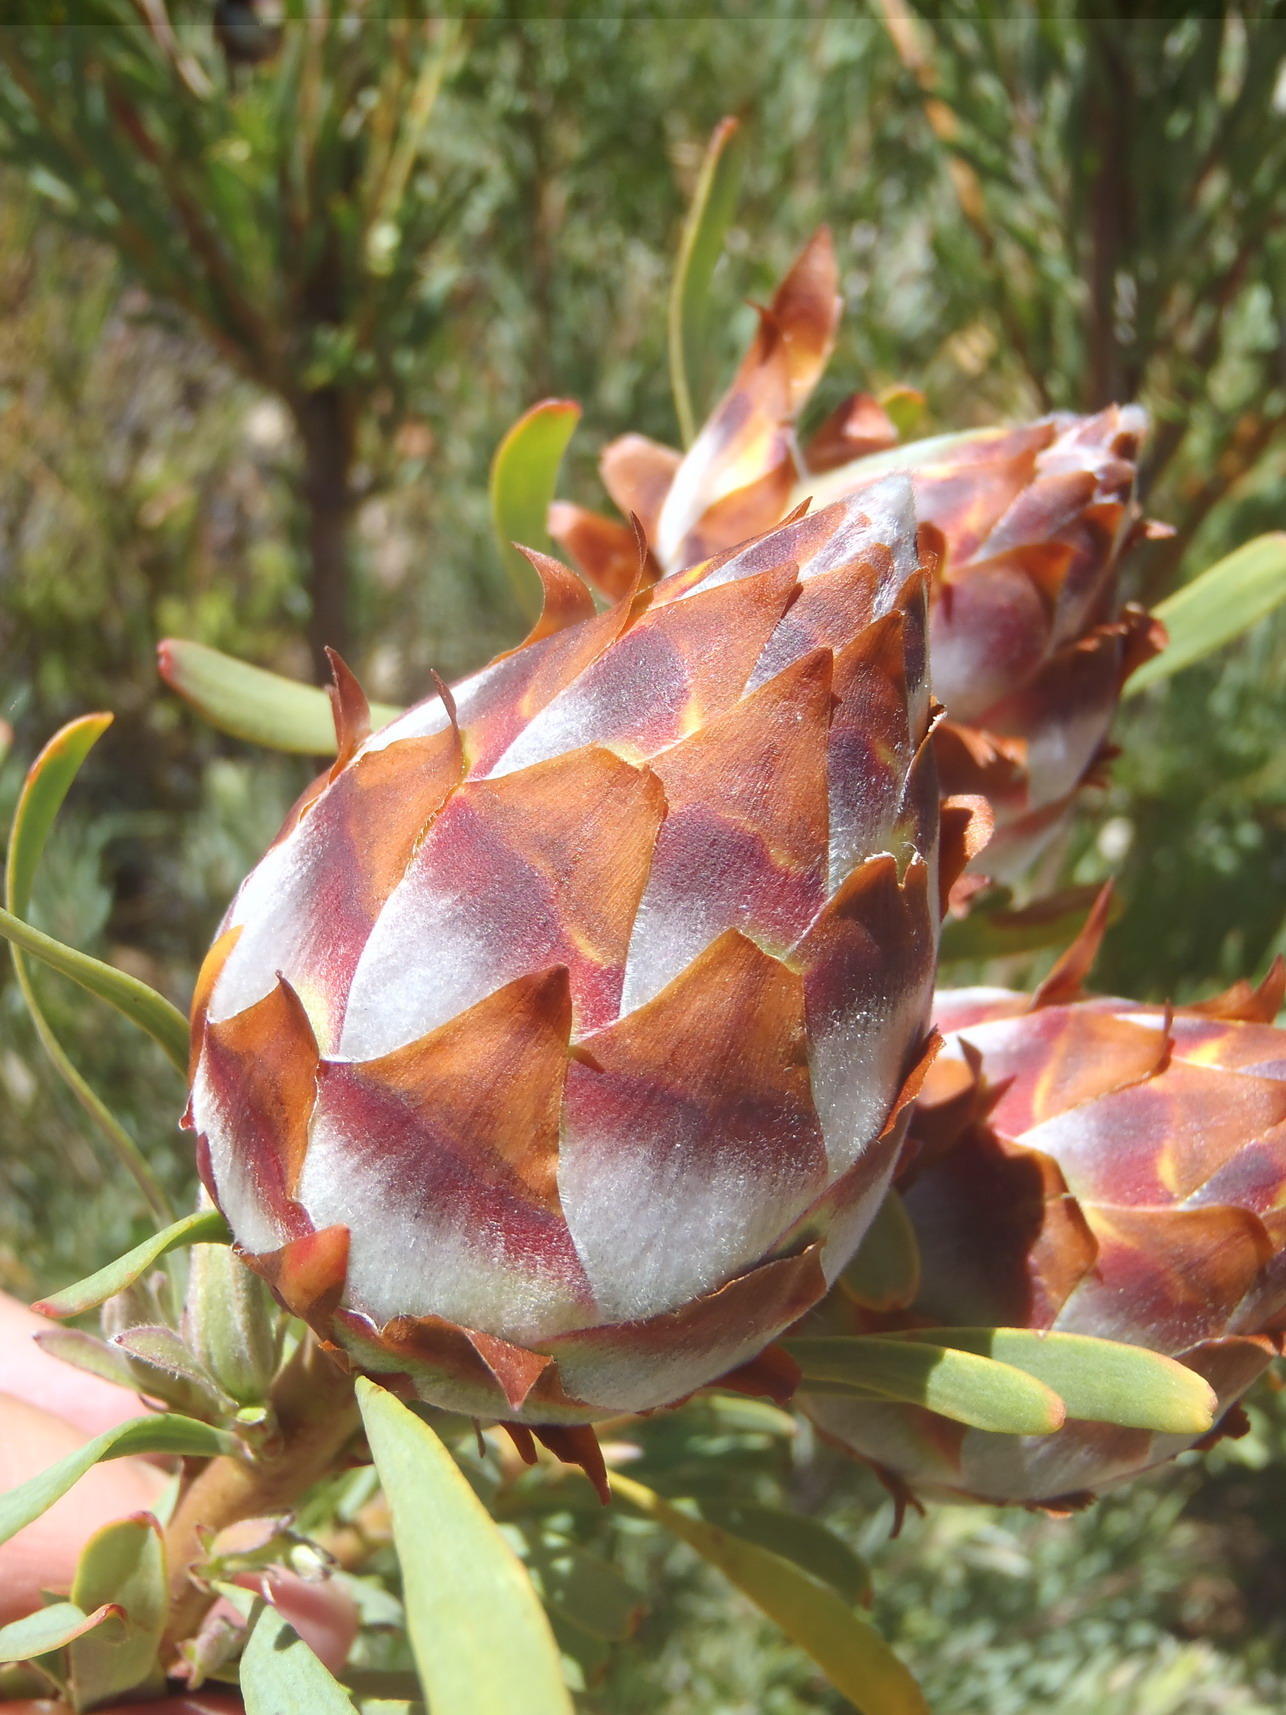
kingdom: Plantae
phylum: Tracheophyta
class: Magnoliopsida
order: Proteales
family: Proteaceae
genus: Leucadendron
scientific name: Leucadendron rubrum
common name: Spinning top
